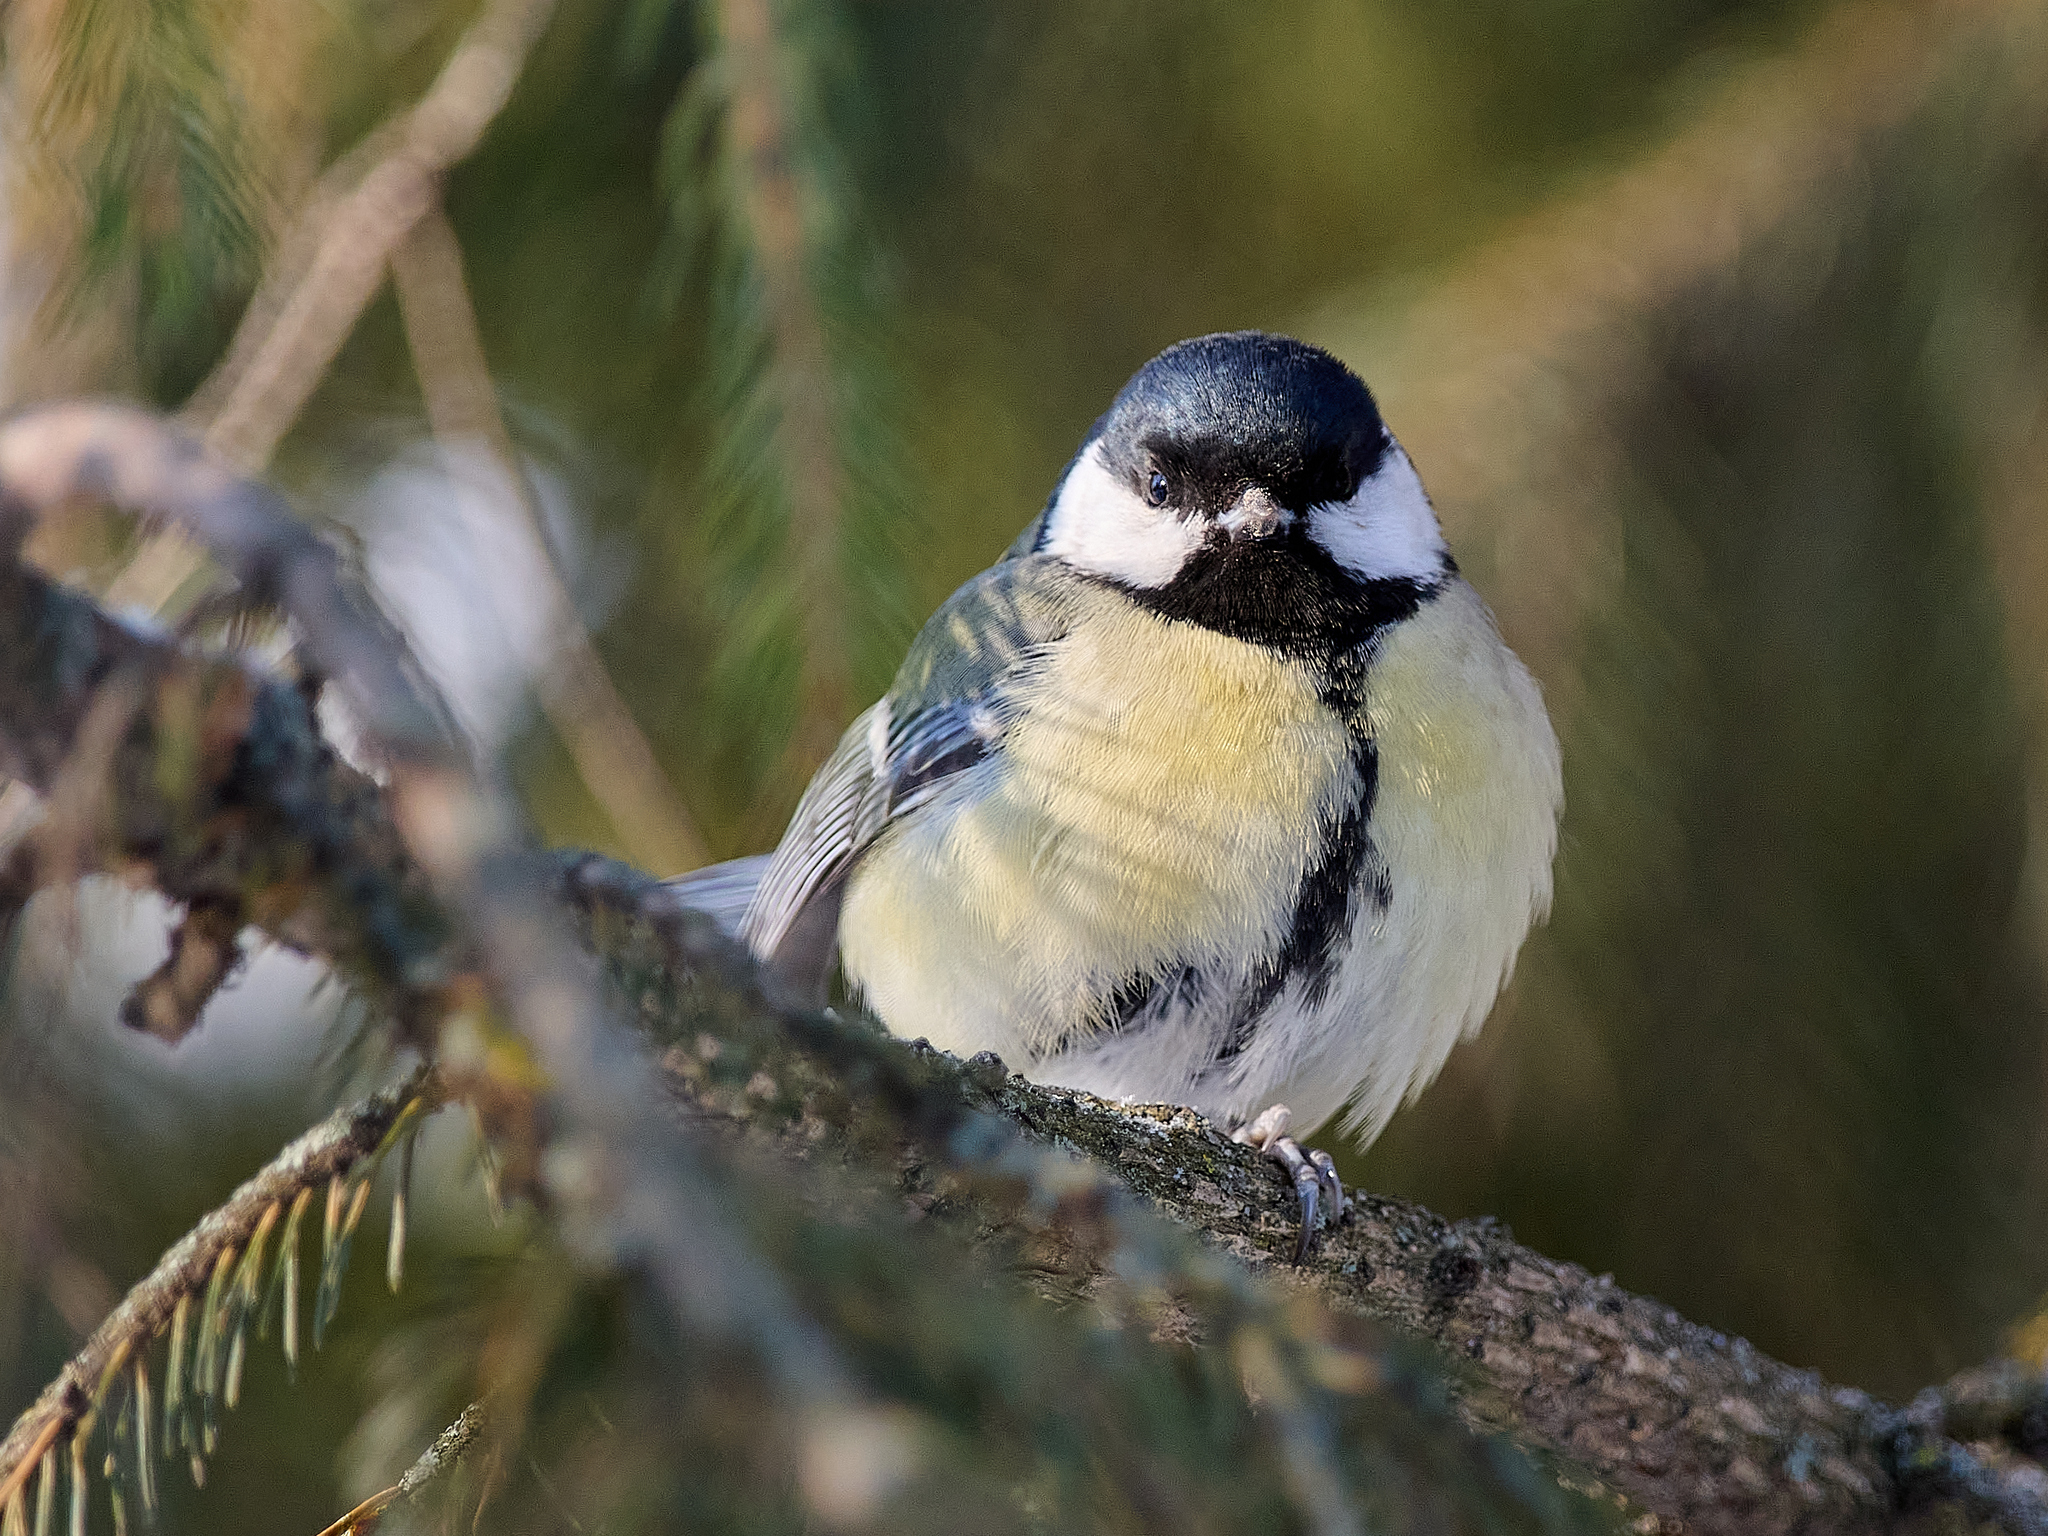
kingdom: Animalia
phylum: Chordata
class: Aves
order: Passeriformes
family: Paridae
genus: Parus
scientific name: Parus major
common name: Great tit
